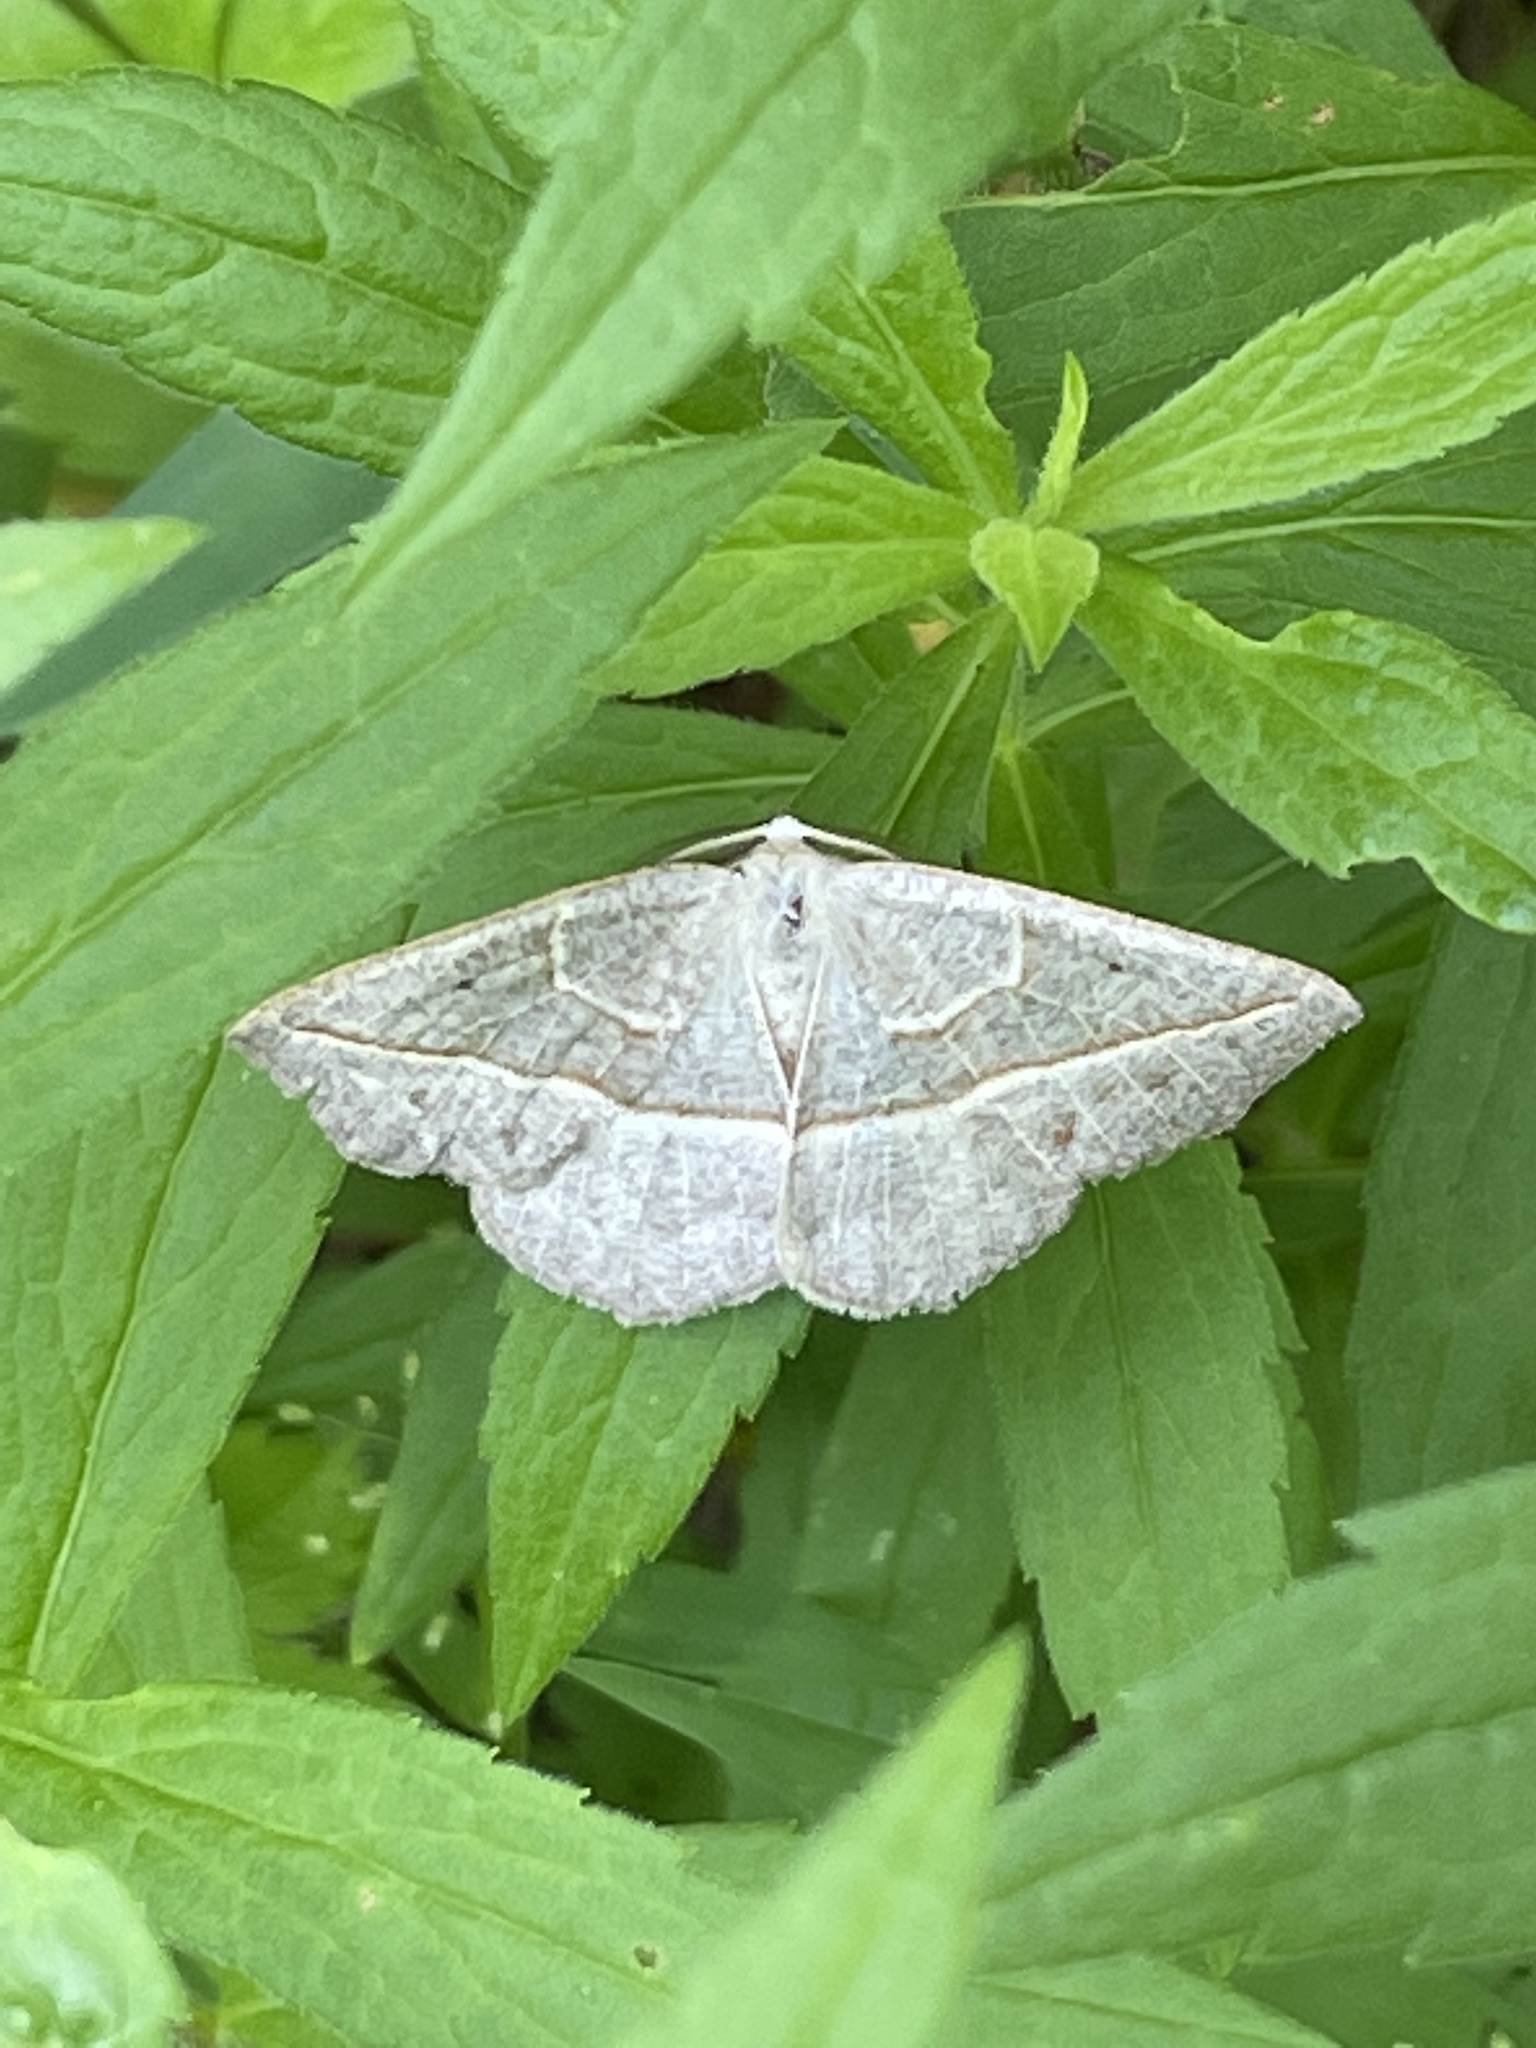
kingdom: Animalia
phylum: Arthropoda
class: Insecta
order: Lepidoptera
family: Geometridae
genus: Eusarca
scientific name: Eusarca confusaria
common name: Confused eusarca
